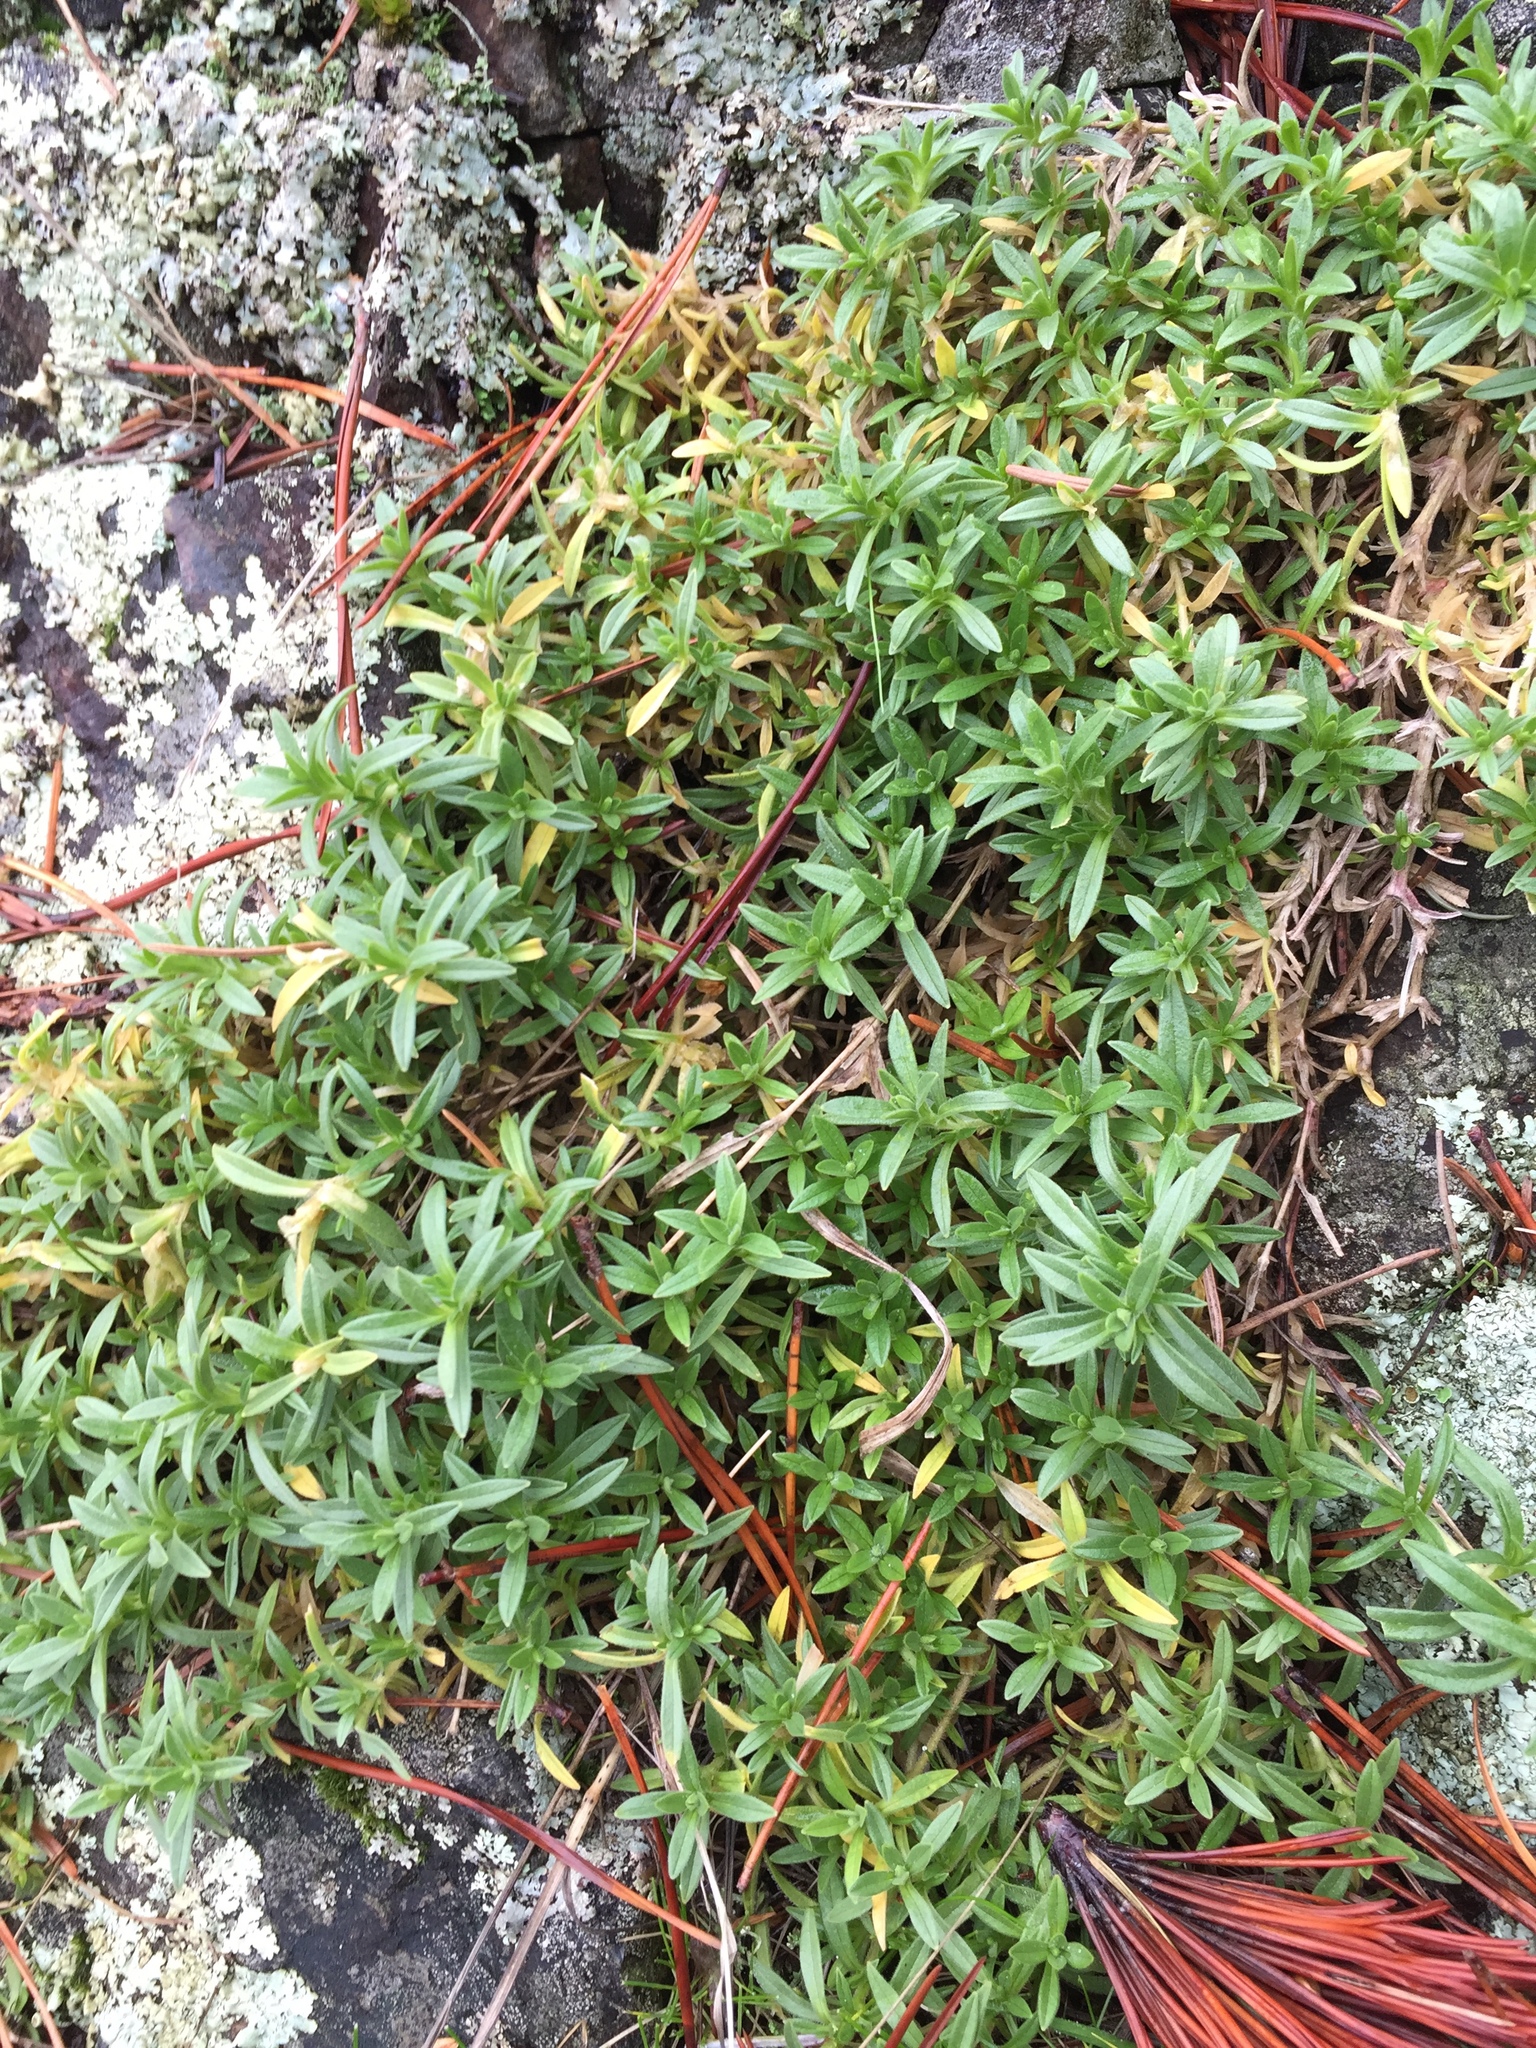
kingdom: Plantae
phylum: Tracheophyta
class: Magnoliopsida
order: Caryophyllales
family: Caryophyllaceae
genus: Cerastium
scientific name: Cerastium arvense
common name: Field mouse-ear
